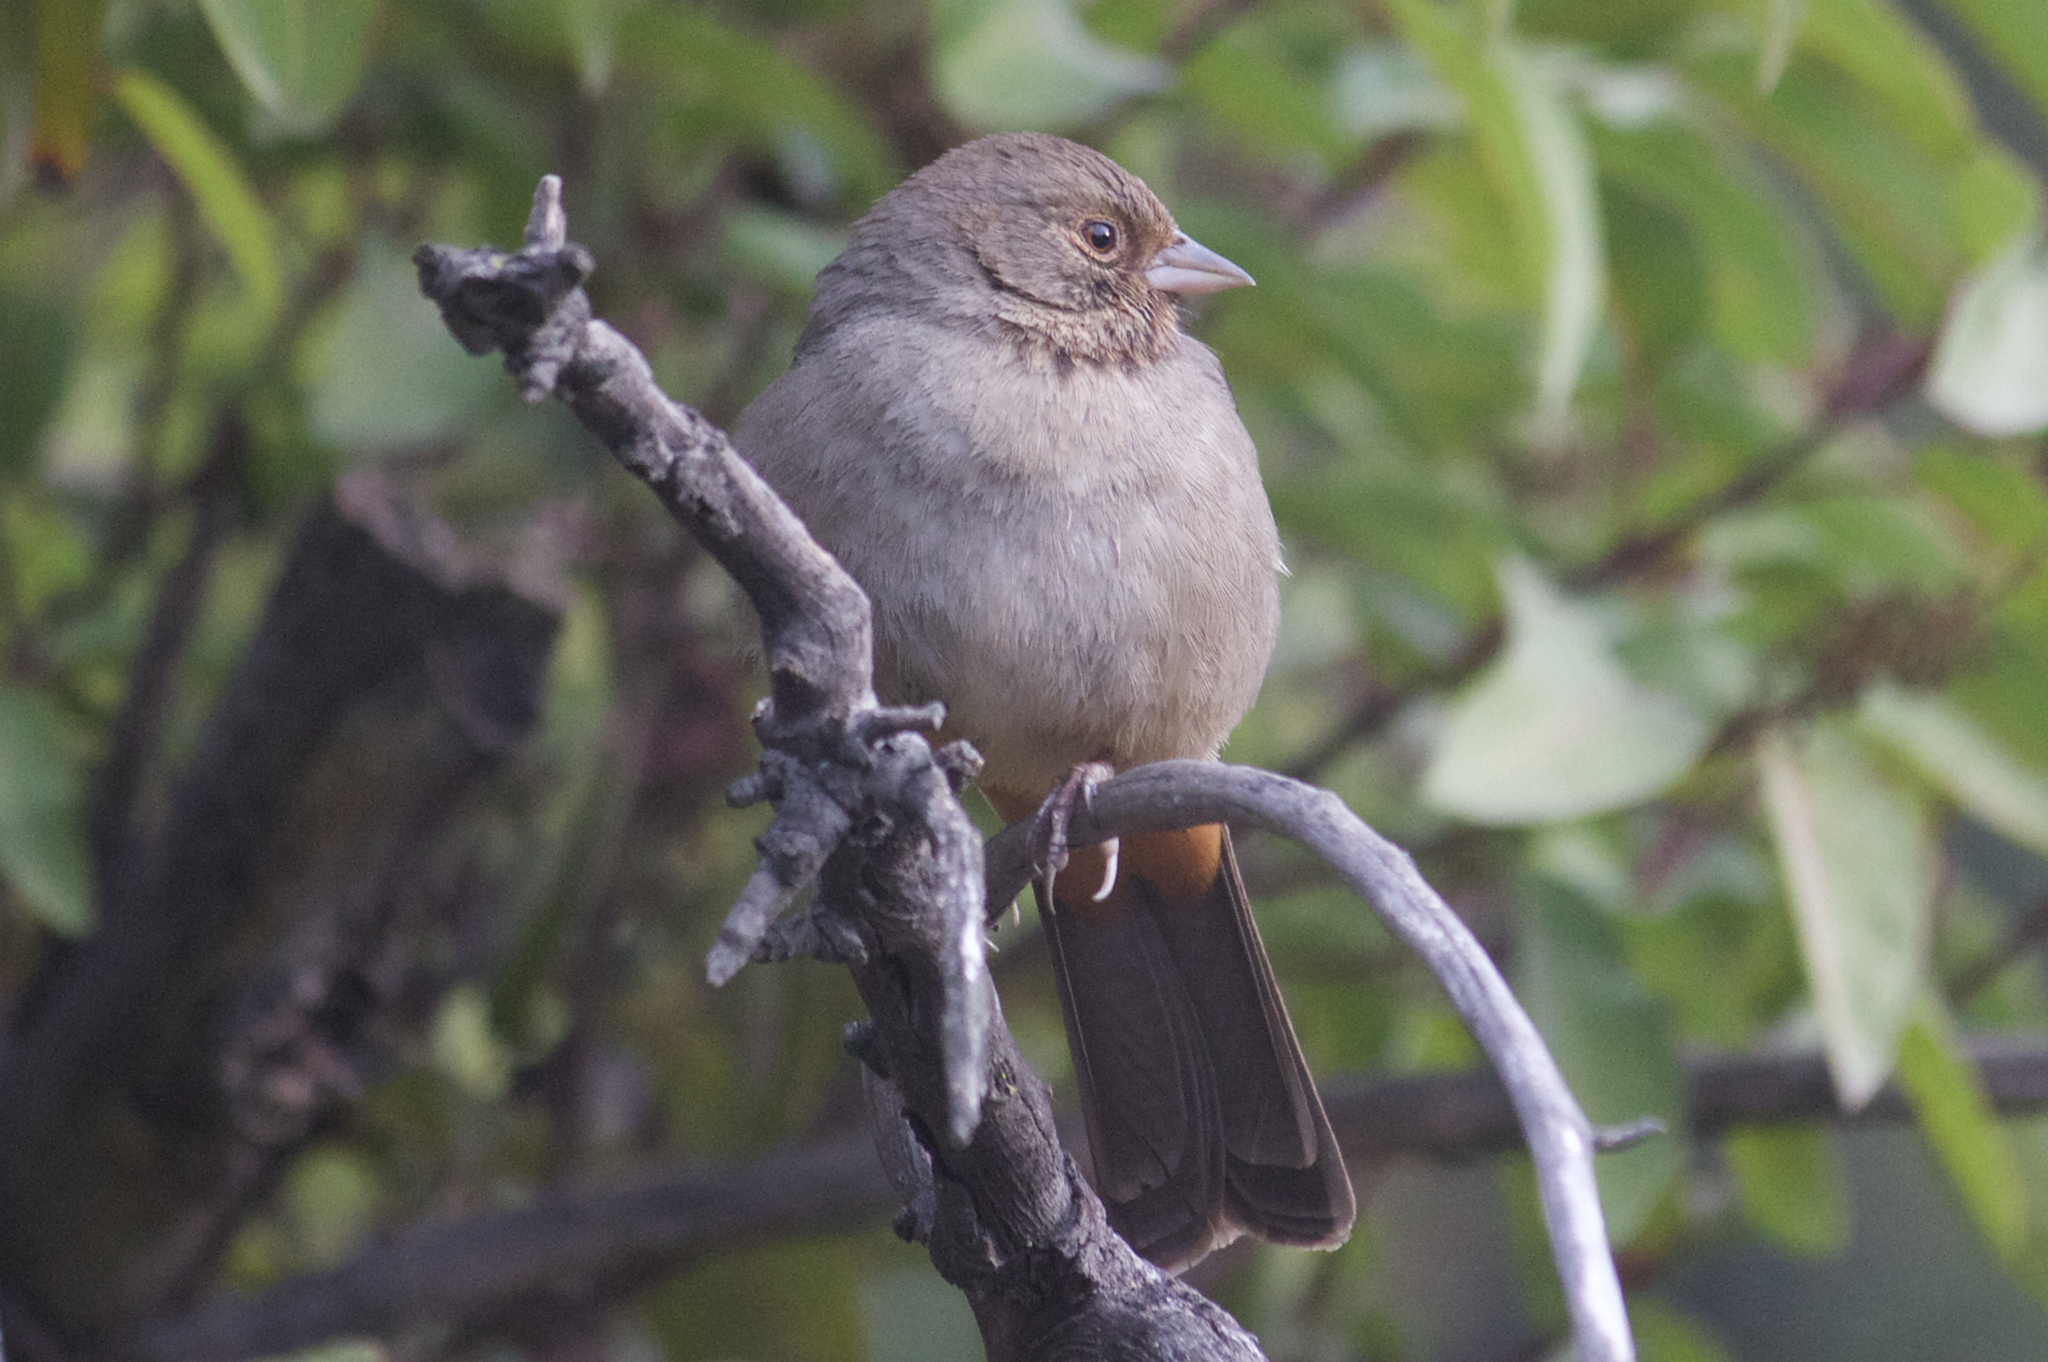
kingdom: Animalia
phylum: Chordata
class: Aves
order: Passeriformes
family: Passerellidae
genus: Melozone
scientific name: Melozone crissalis
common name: California towhee
